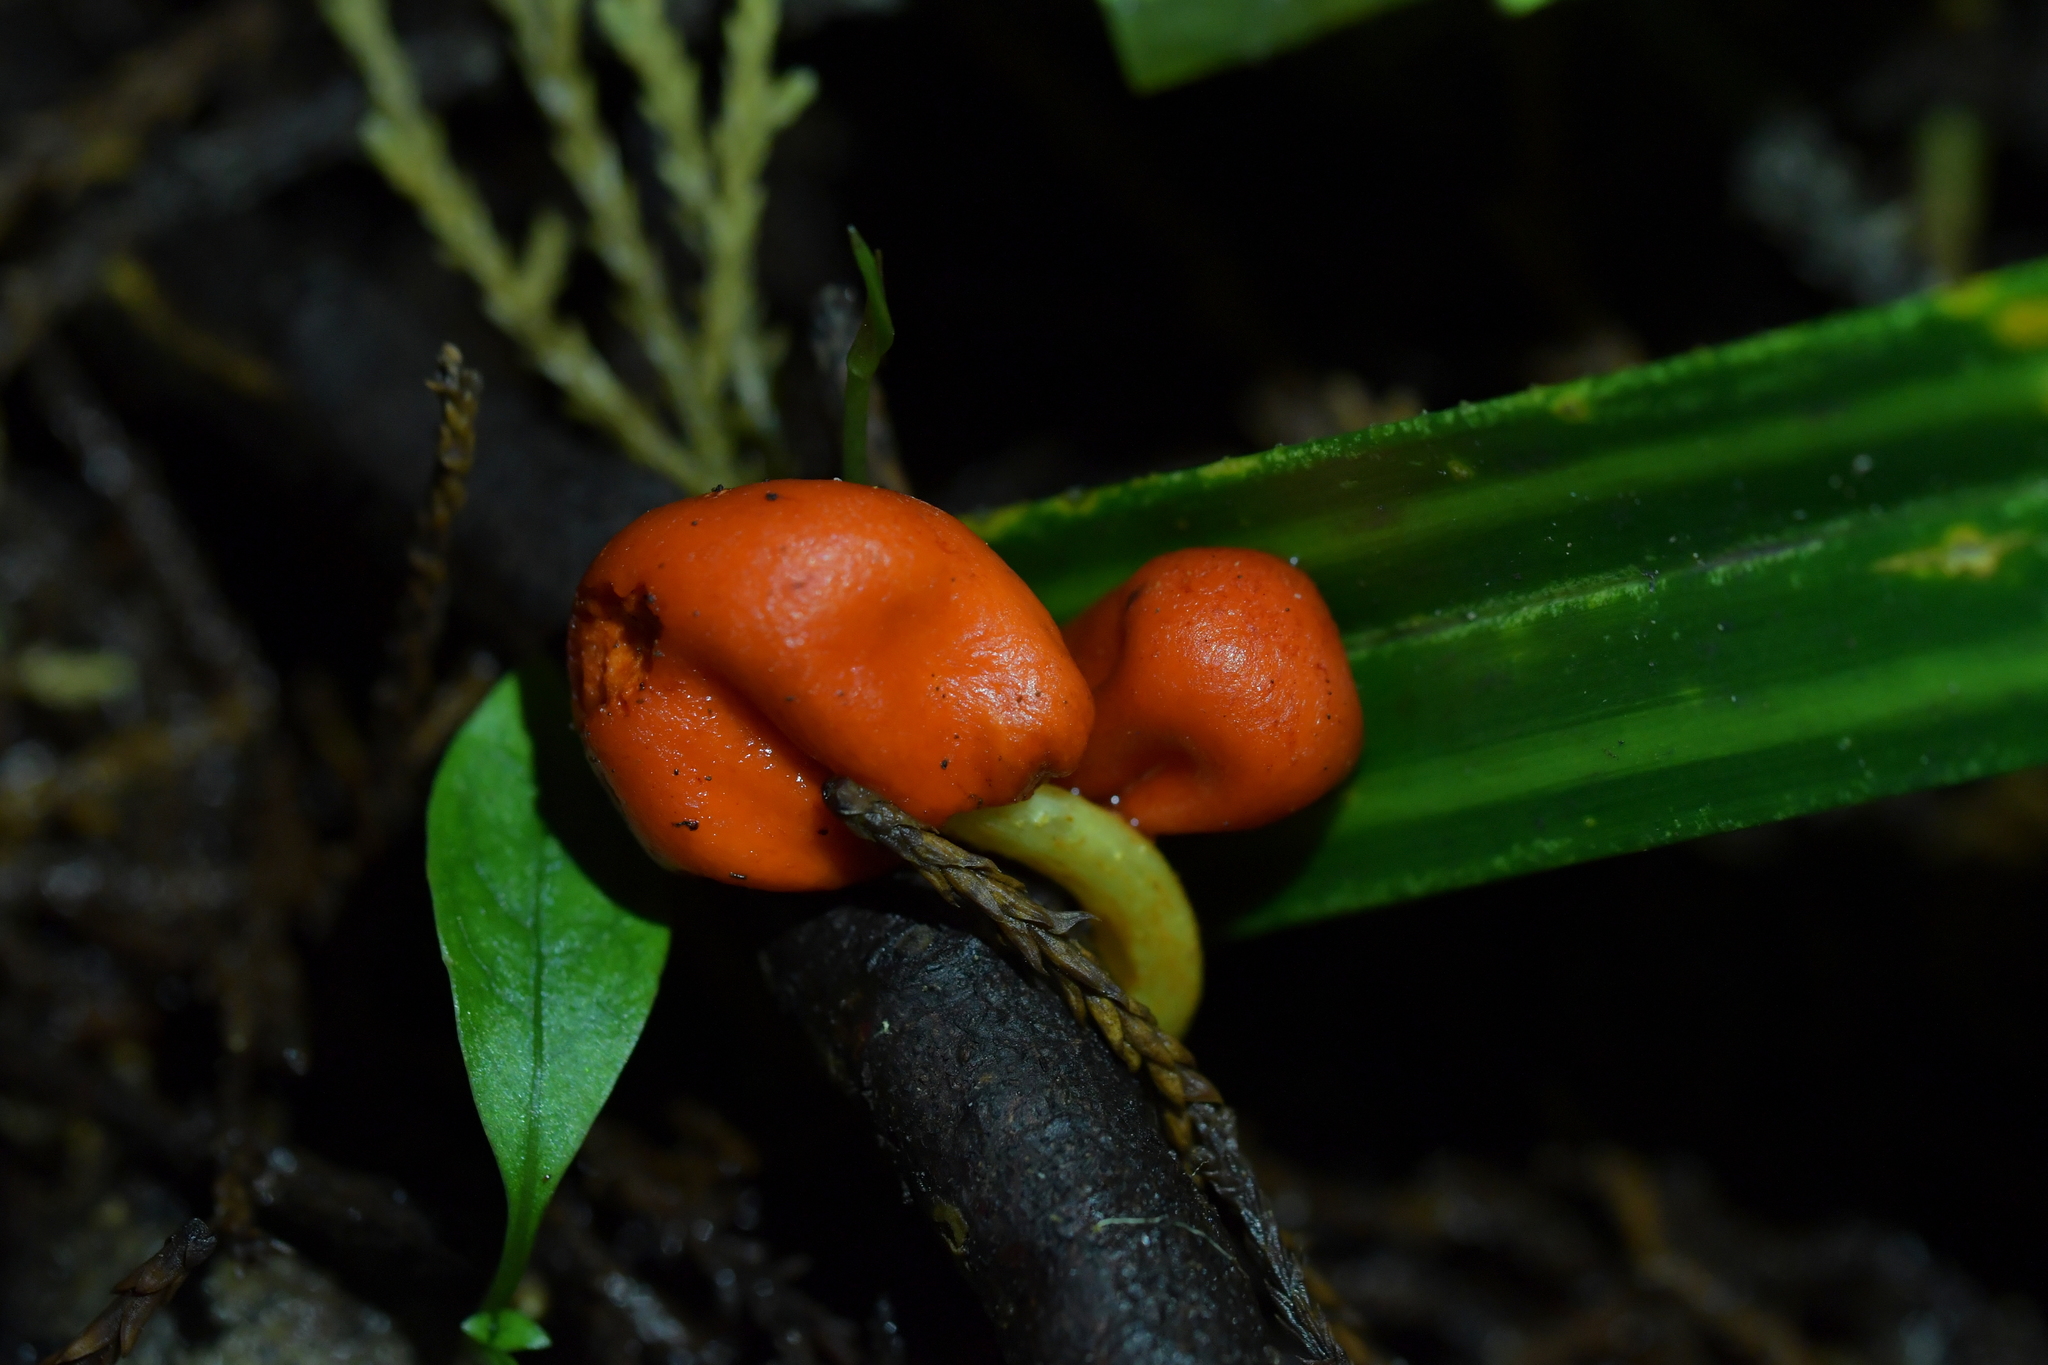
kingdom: Fungi
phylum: Basidiomycota
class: Agaricomycetes
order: Agaricales
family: Strophariaceae
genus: Leratiomyces
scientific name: Leratiomyces erythrocephalus
